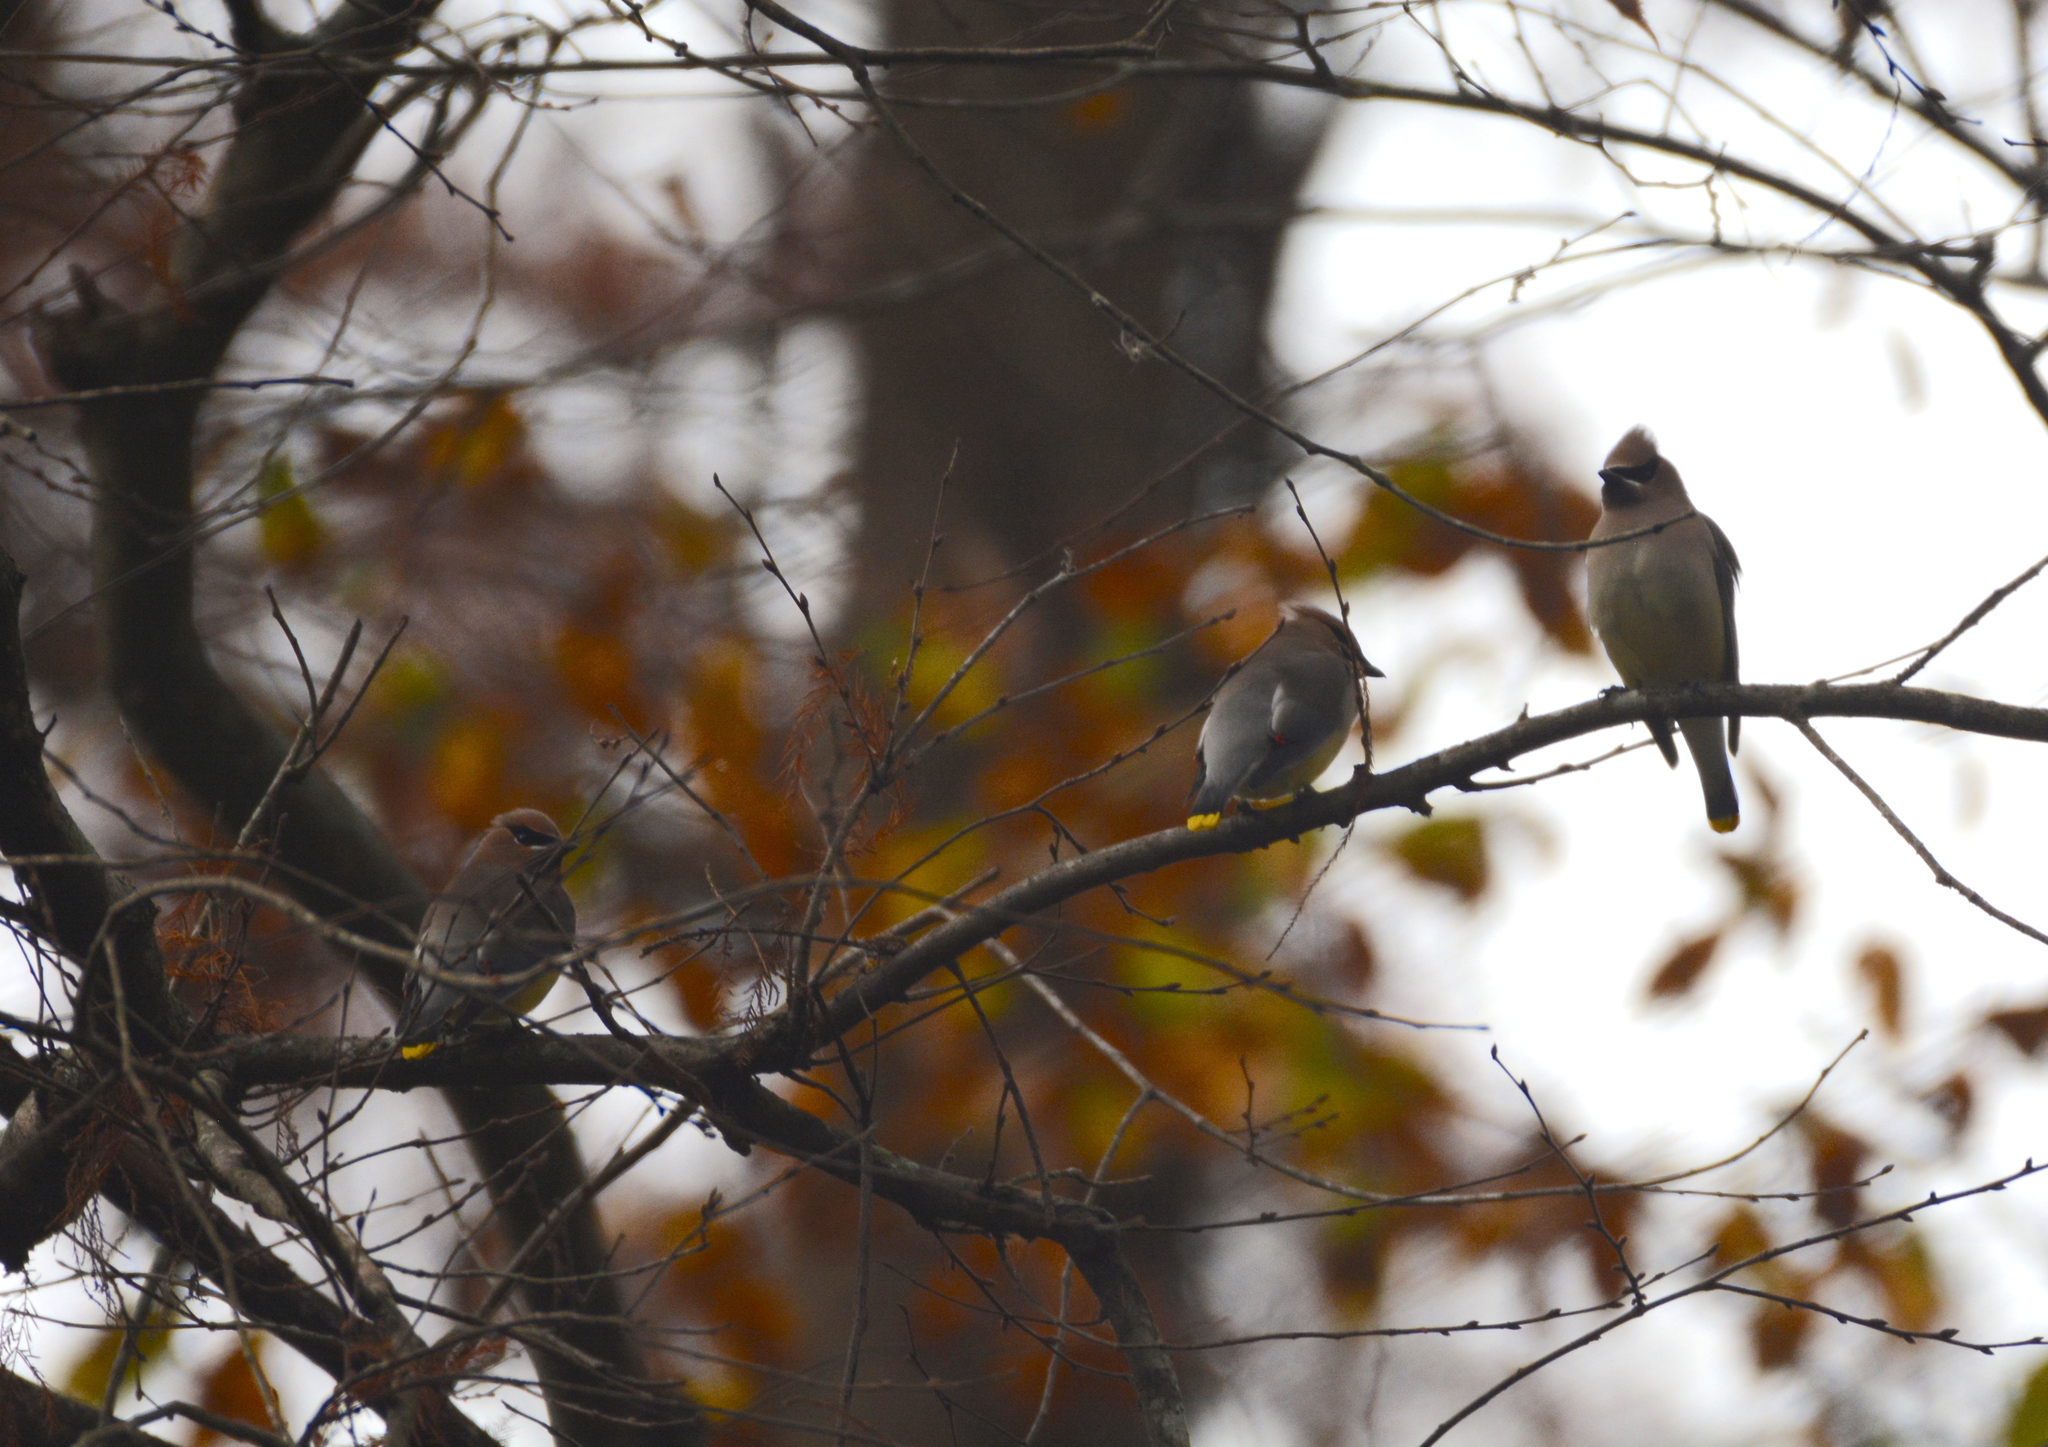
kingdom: Animalia
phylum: Chordata
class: Aves
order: Passeriformes
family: Bombycillidae
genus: Bombycilla
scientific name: Bombycilla cedrorum
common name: Cedar waxwing
